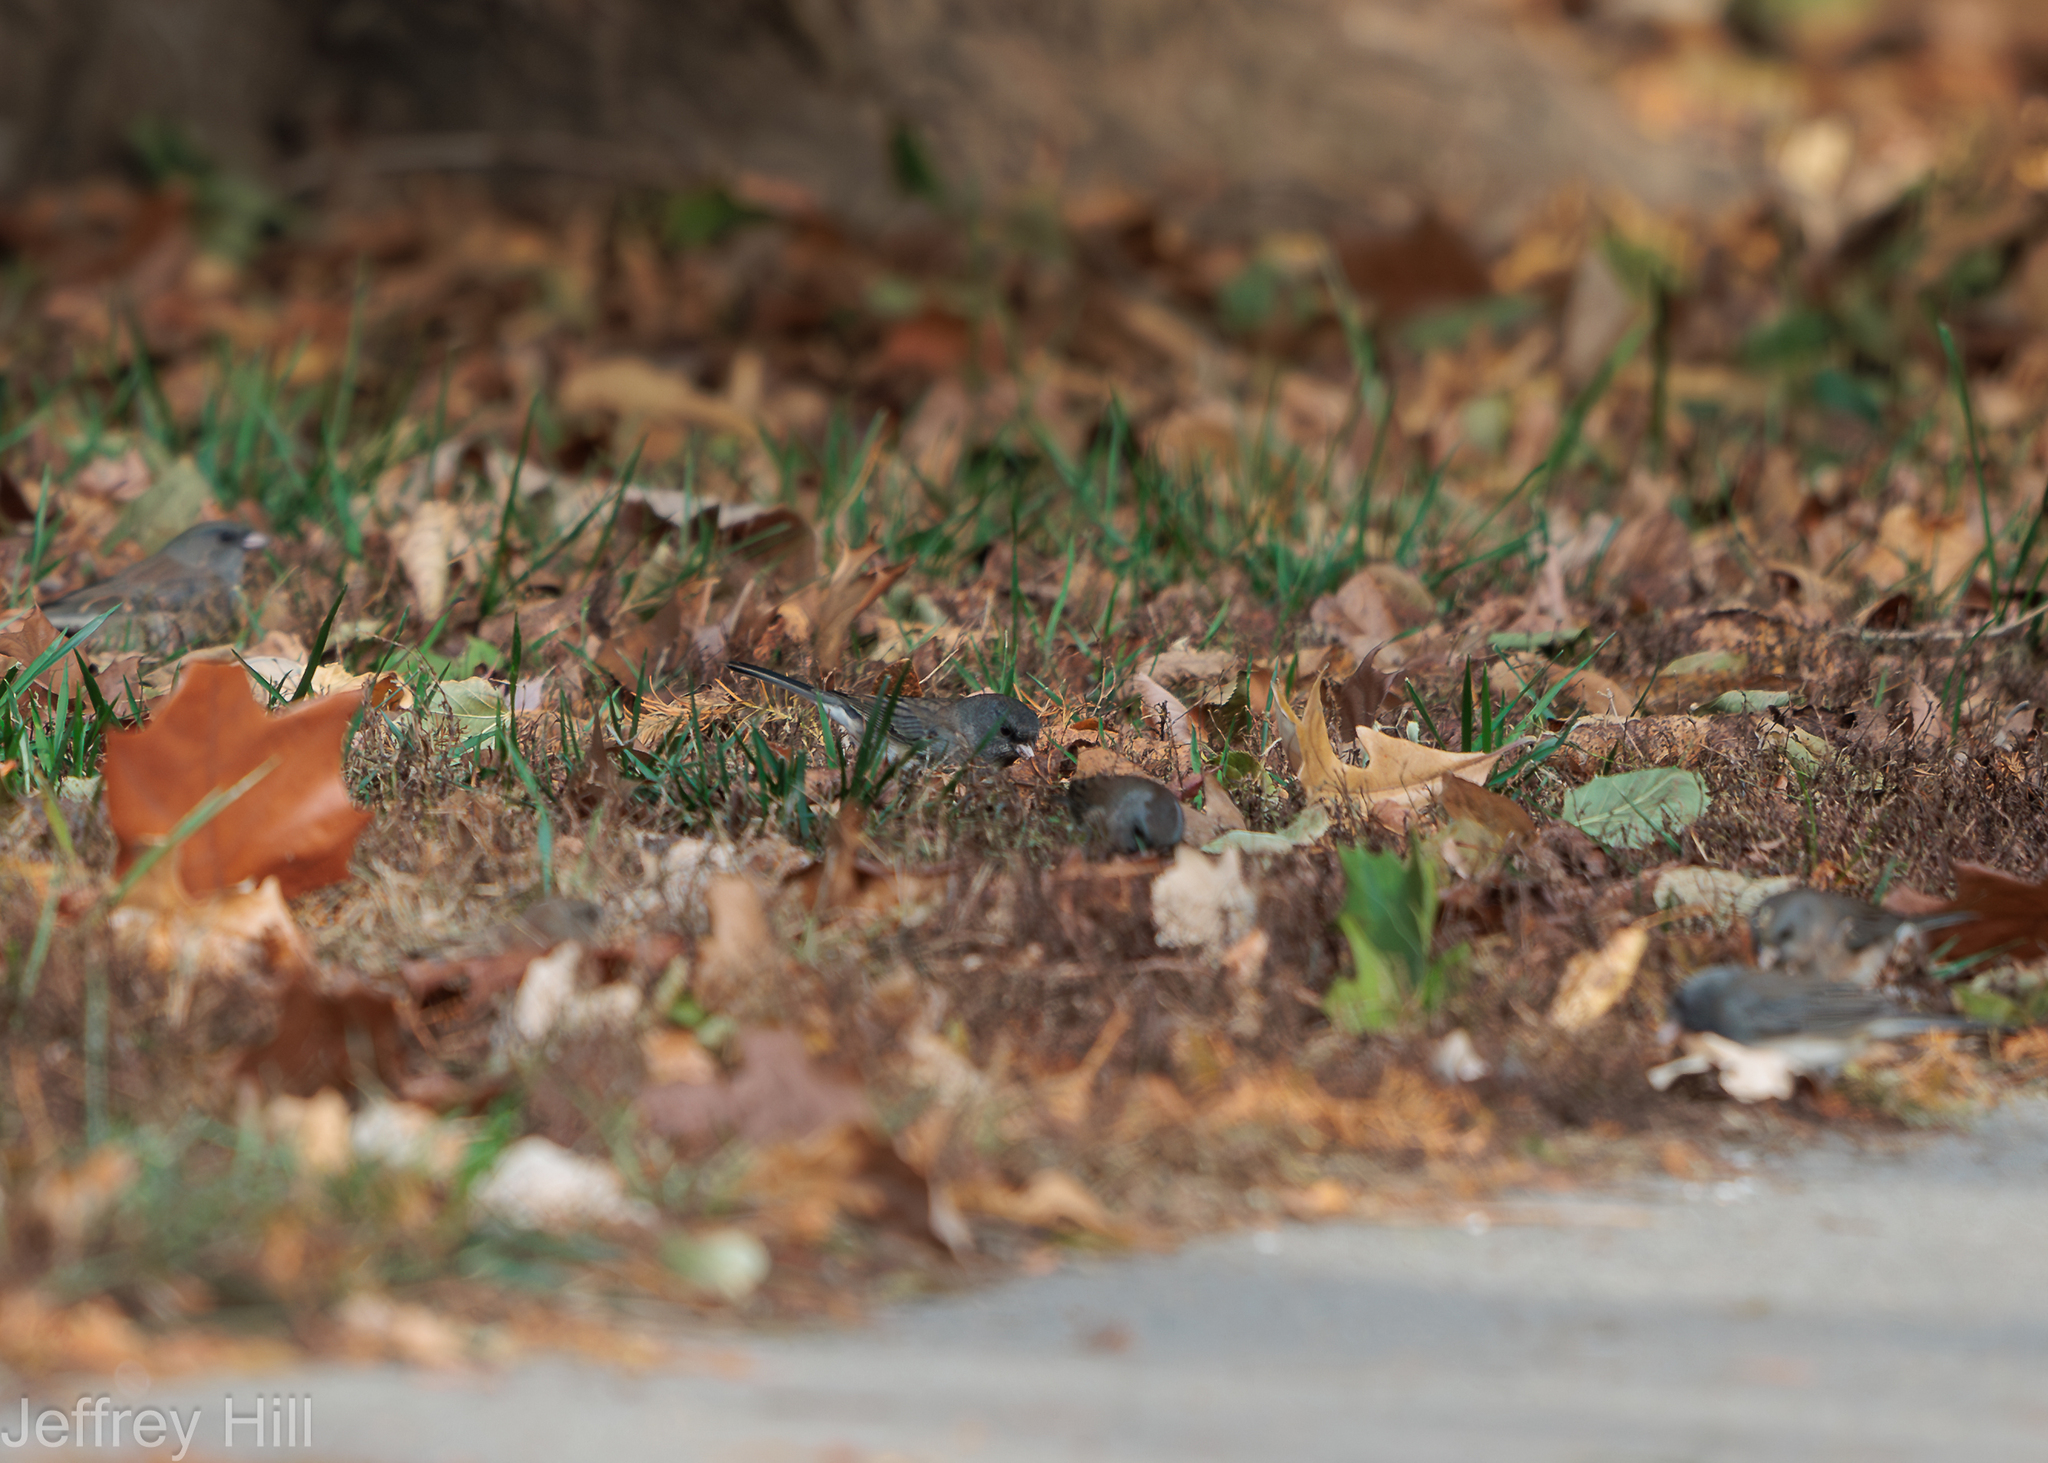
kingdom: Animalia
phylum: Chordata
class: Aves
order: Passeriformes
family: Passerellidae
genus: Junco
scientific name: Junco hyemalis
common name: Dark-eyed junco
